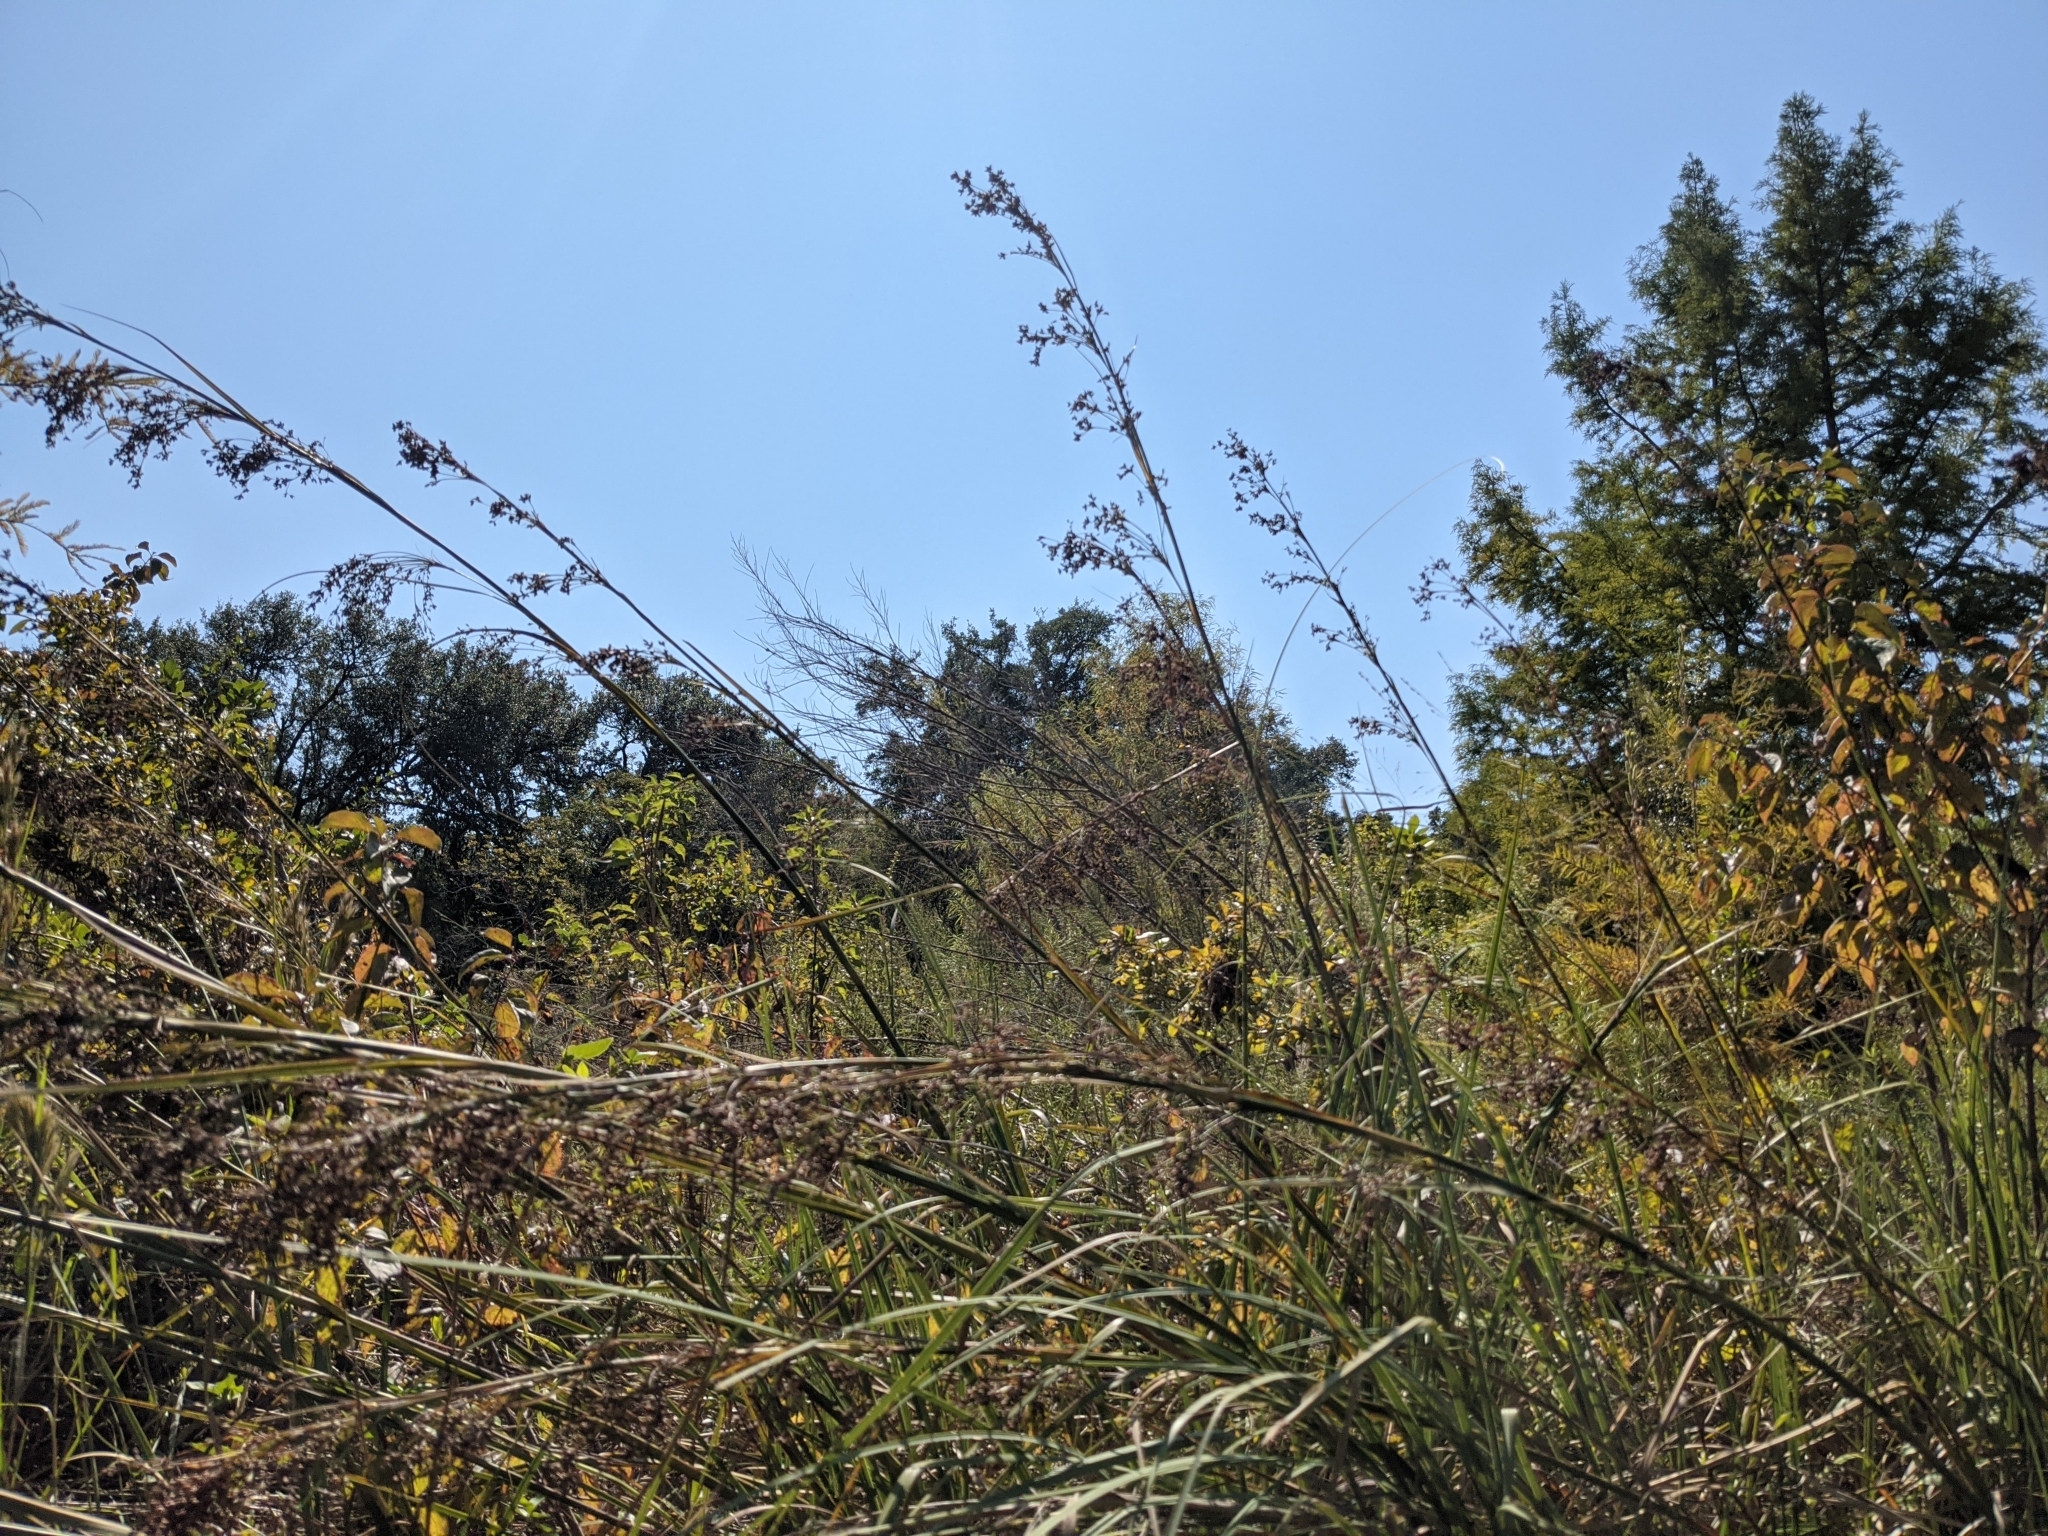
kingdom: Plantae
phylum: Tracheophyta
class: Liliopsida
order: Poales
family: Cyperaceae
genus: Cladium
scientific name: Cladium mariscus
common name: Great fen-sedge
